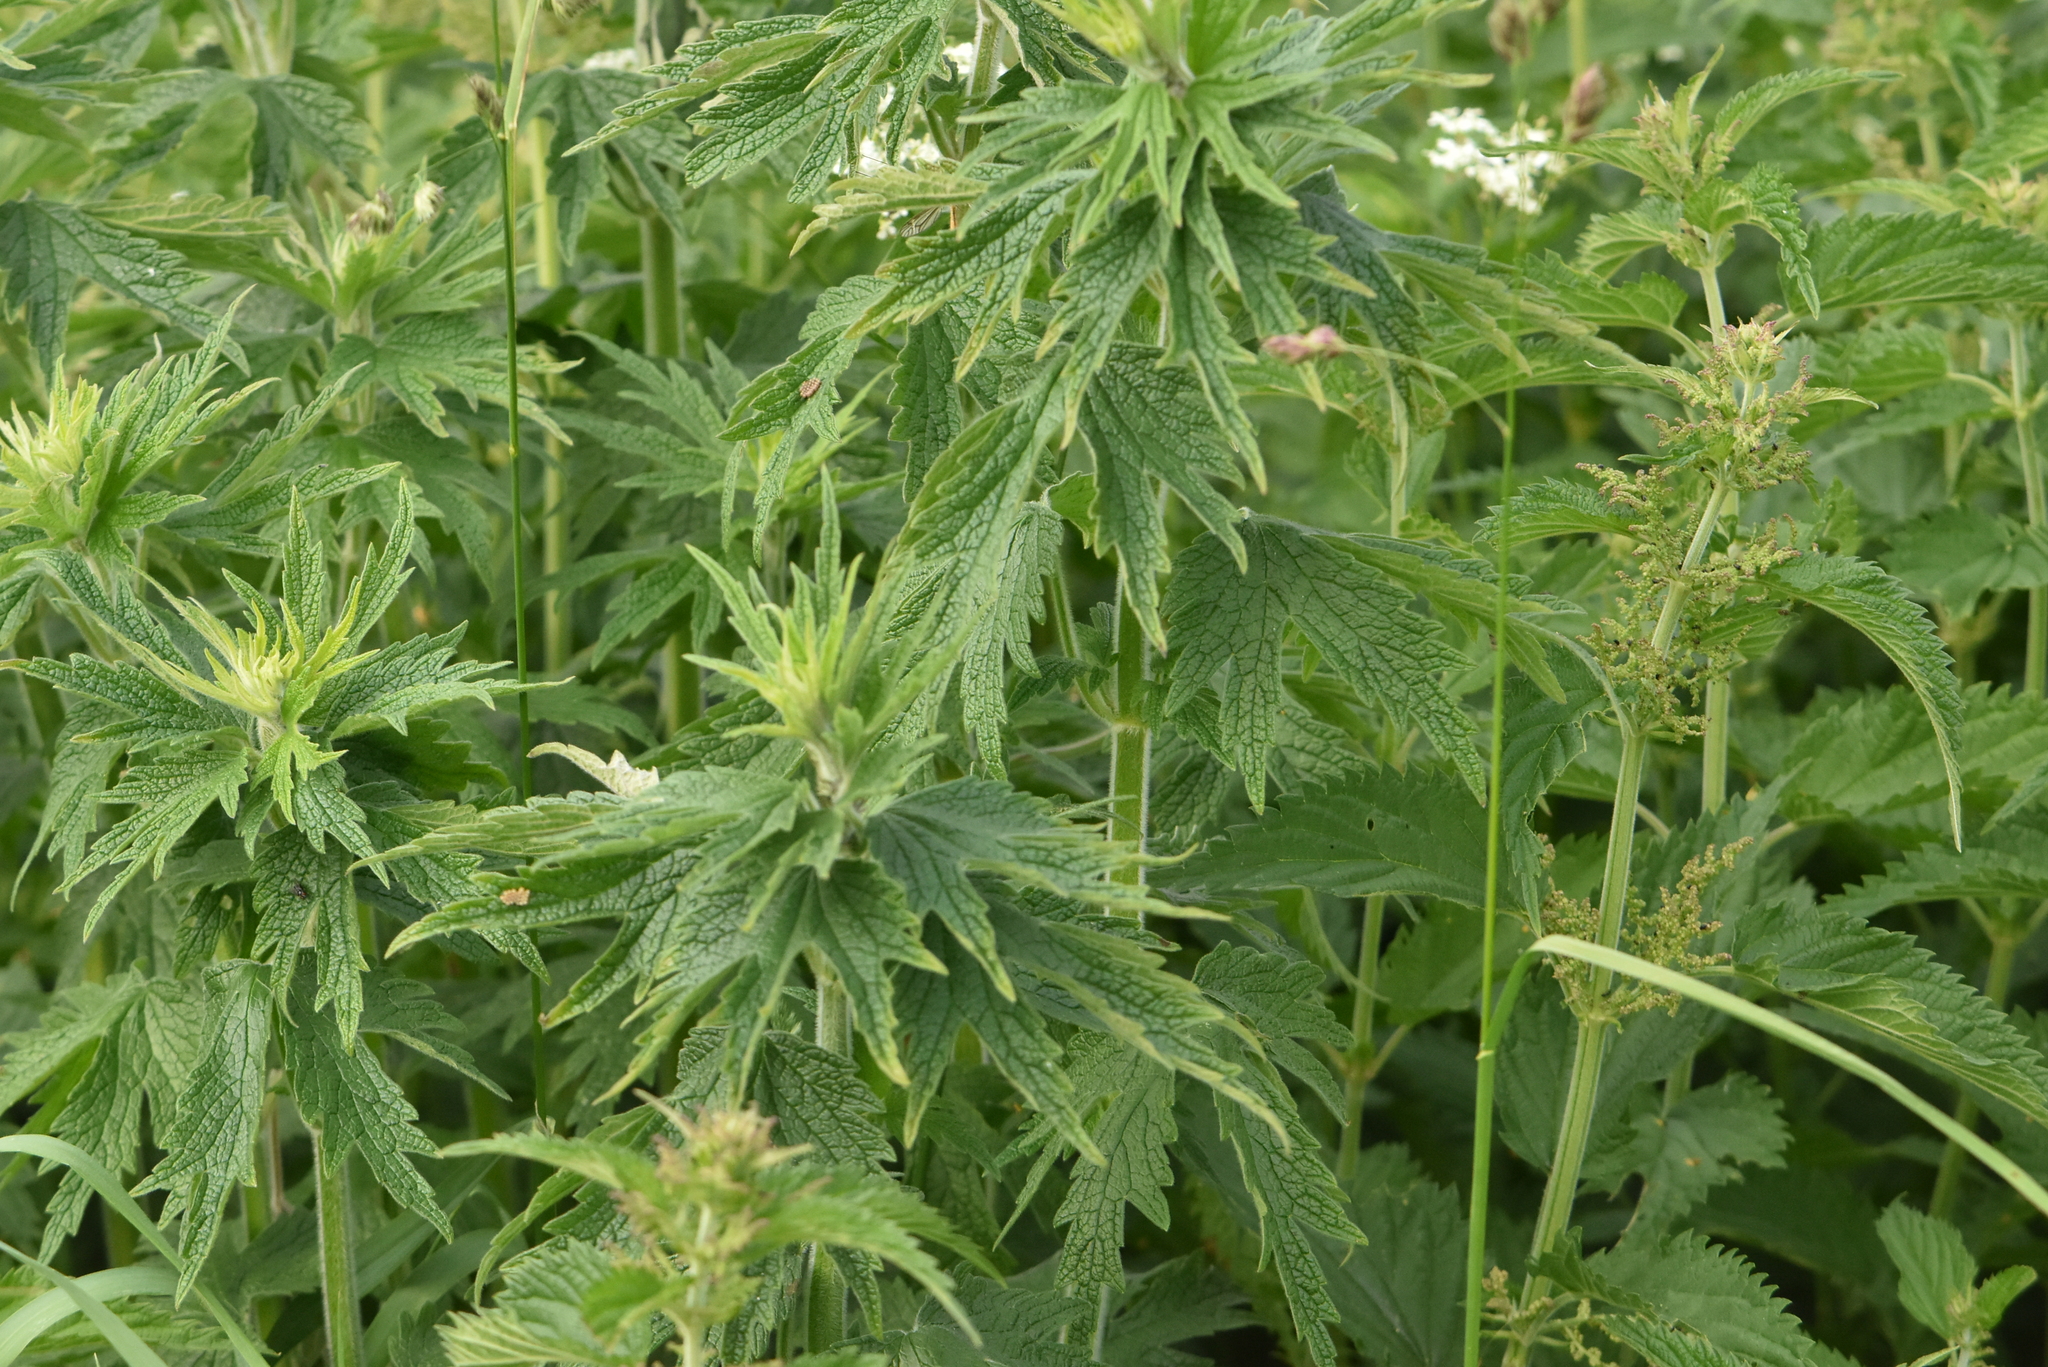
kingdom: Plantae
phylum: Tracheophyta
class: Magnoliopsida
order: Lamiales
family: Lamiaceae
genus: Leonurus
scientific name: Leonurus quinquelobatus
